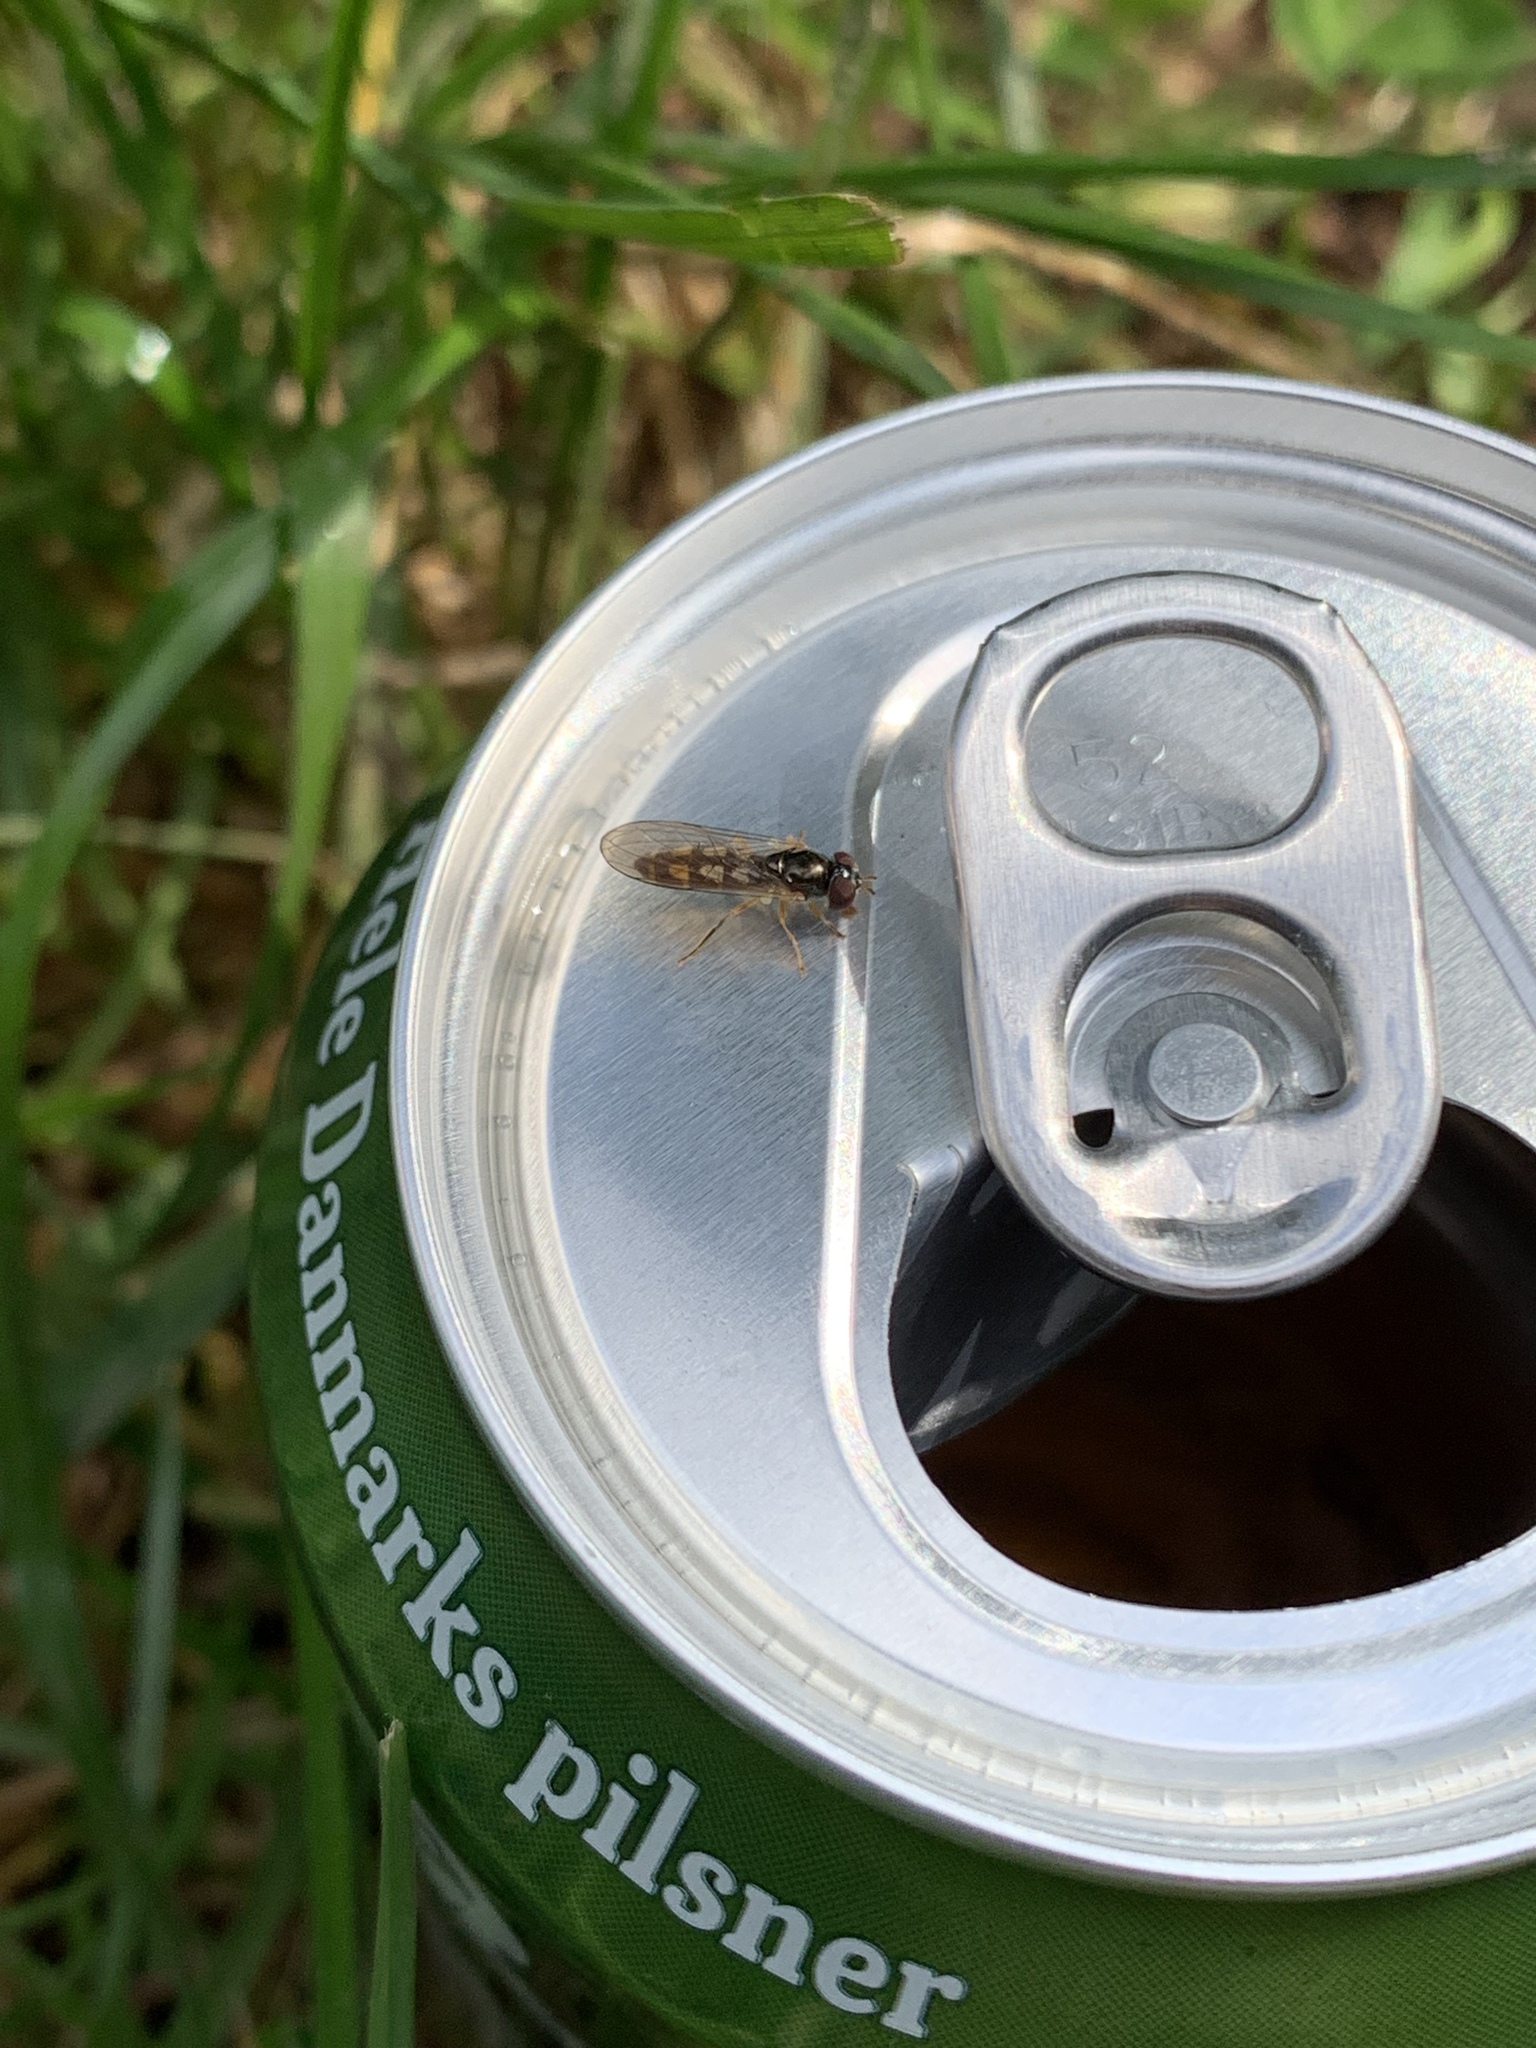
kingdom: Animalia
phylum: Arthropoda
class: Insecta
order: Diptera
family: Syrphidae
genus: Melanostoma
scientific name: Melanostoma scalare
